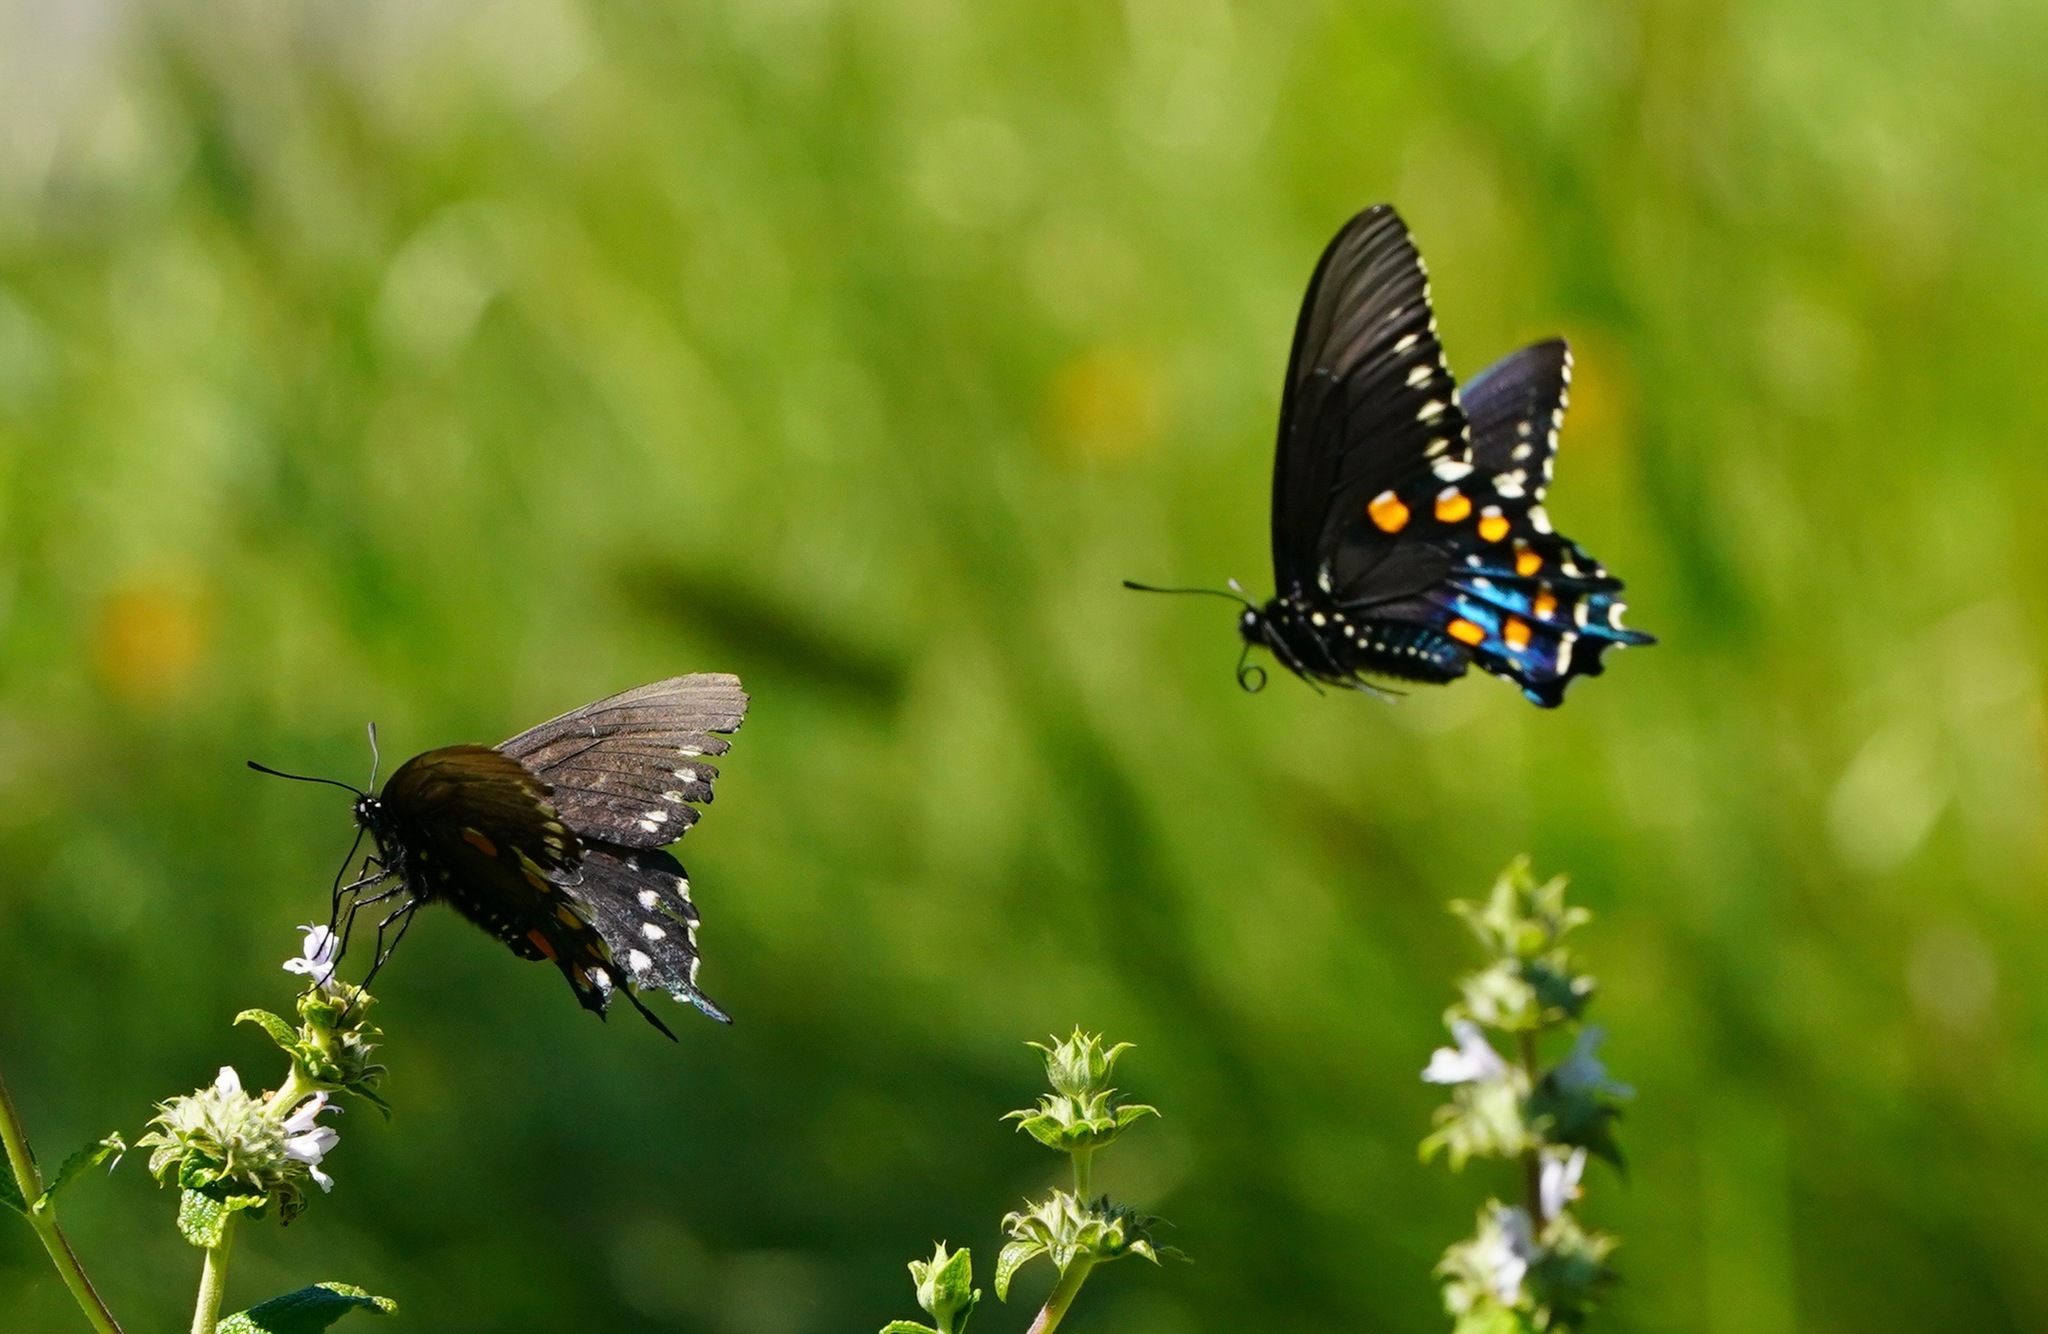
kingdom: Animalia
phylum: Arthropoda
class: Insecta
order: Lepidoptera
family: Papilionidae
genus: Battus
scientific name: Battus philenor
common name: Pipevine swallowtail
